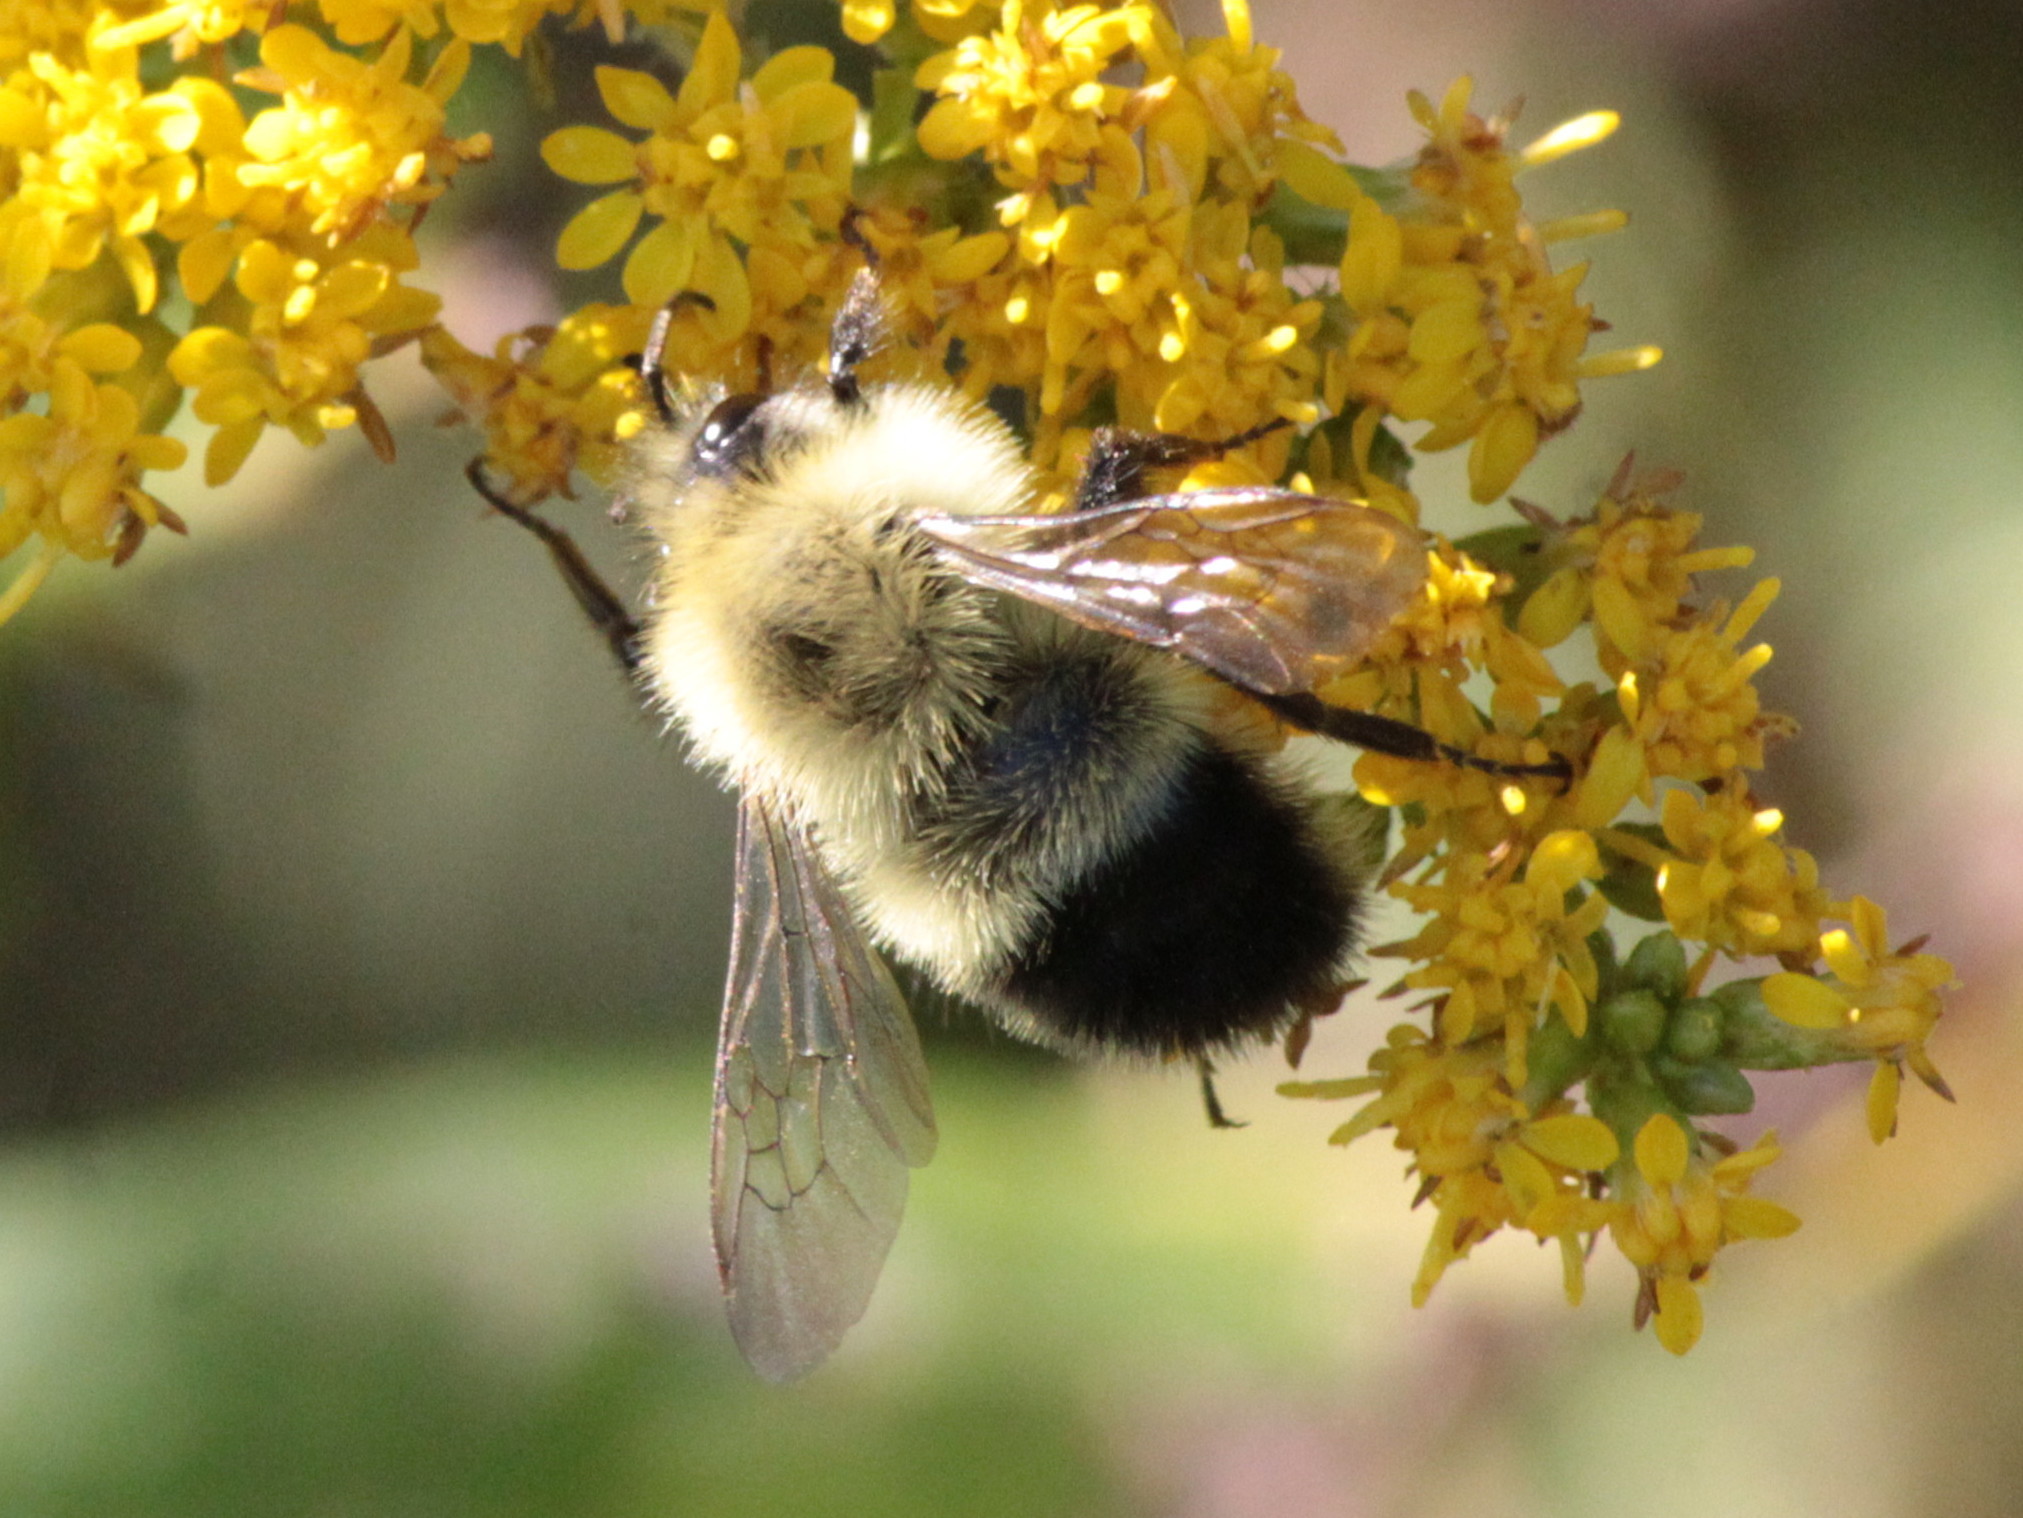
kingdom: Animalia
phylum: Arthropoda
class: Insecta
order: Hymenoptera
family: Apidae
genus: Bombus
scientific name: Bombus vagans
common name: Half-black bumble bee
